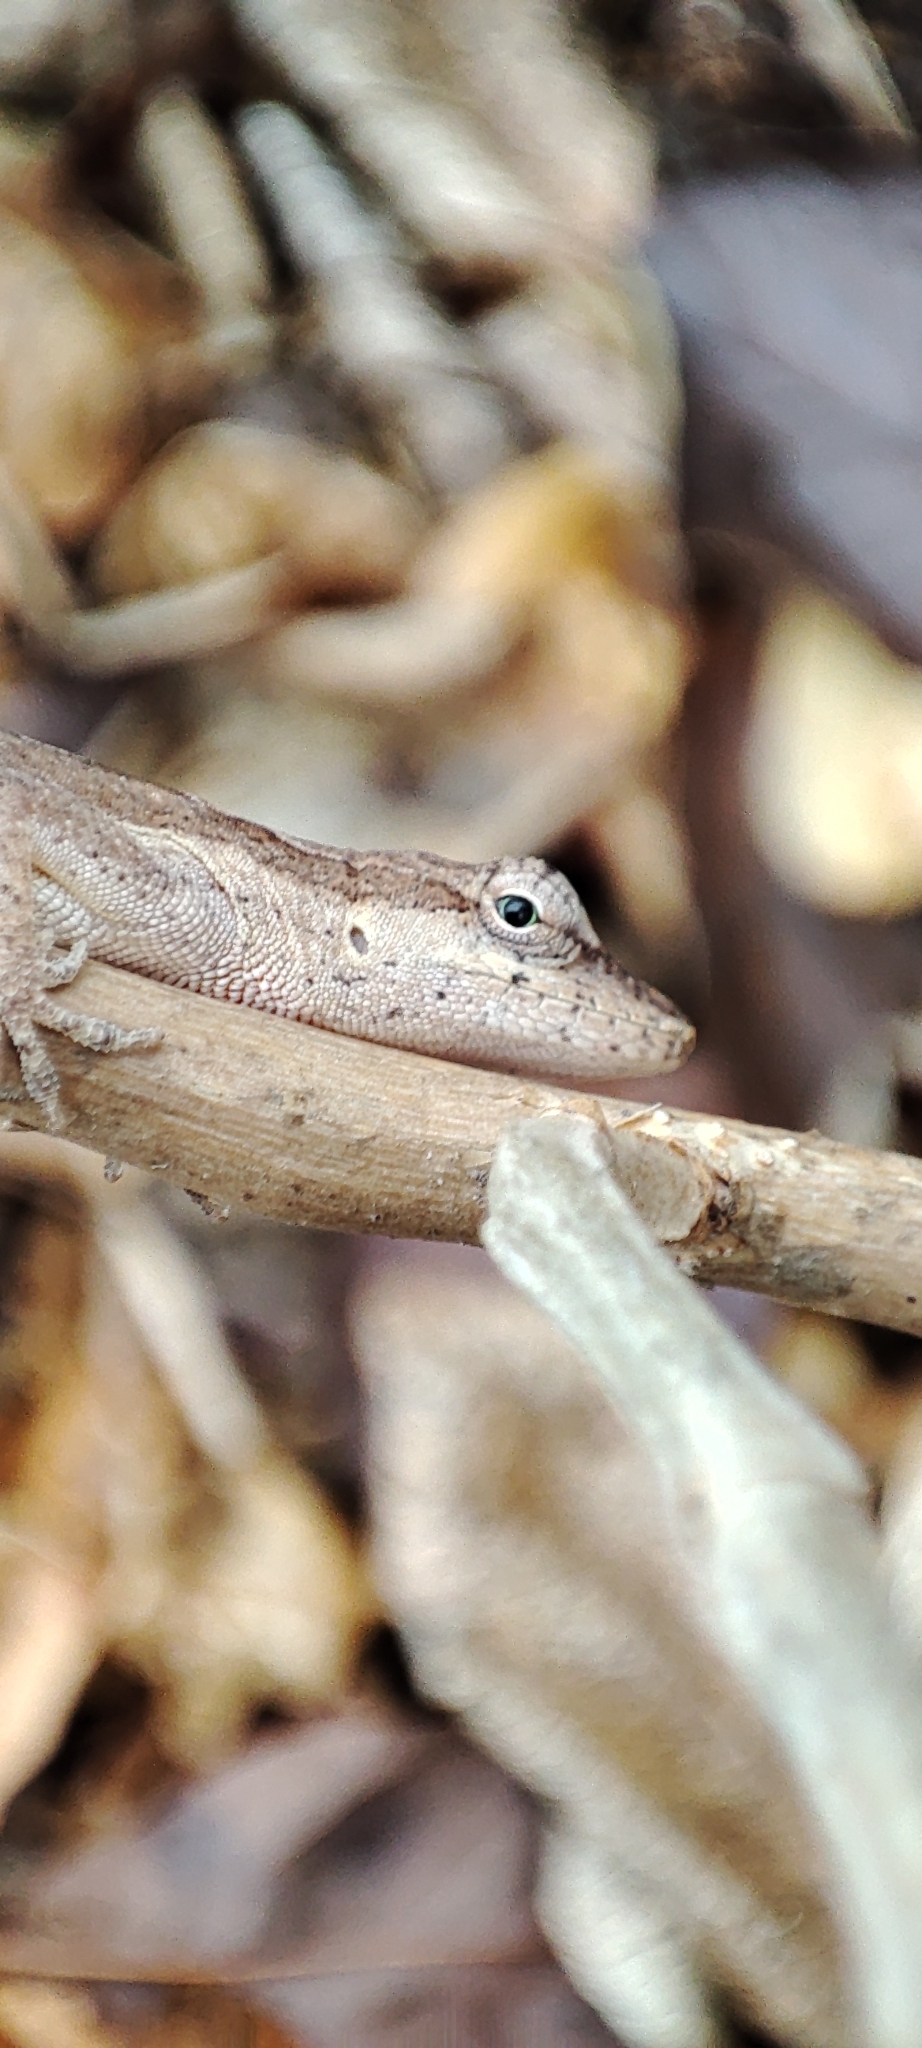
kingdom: Animalia
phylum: Chordata
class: Squamata
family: Dactyloidae
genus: Anolis
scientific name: Anolis nebulosus
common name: Clouded anole
